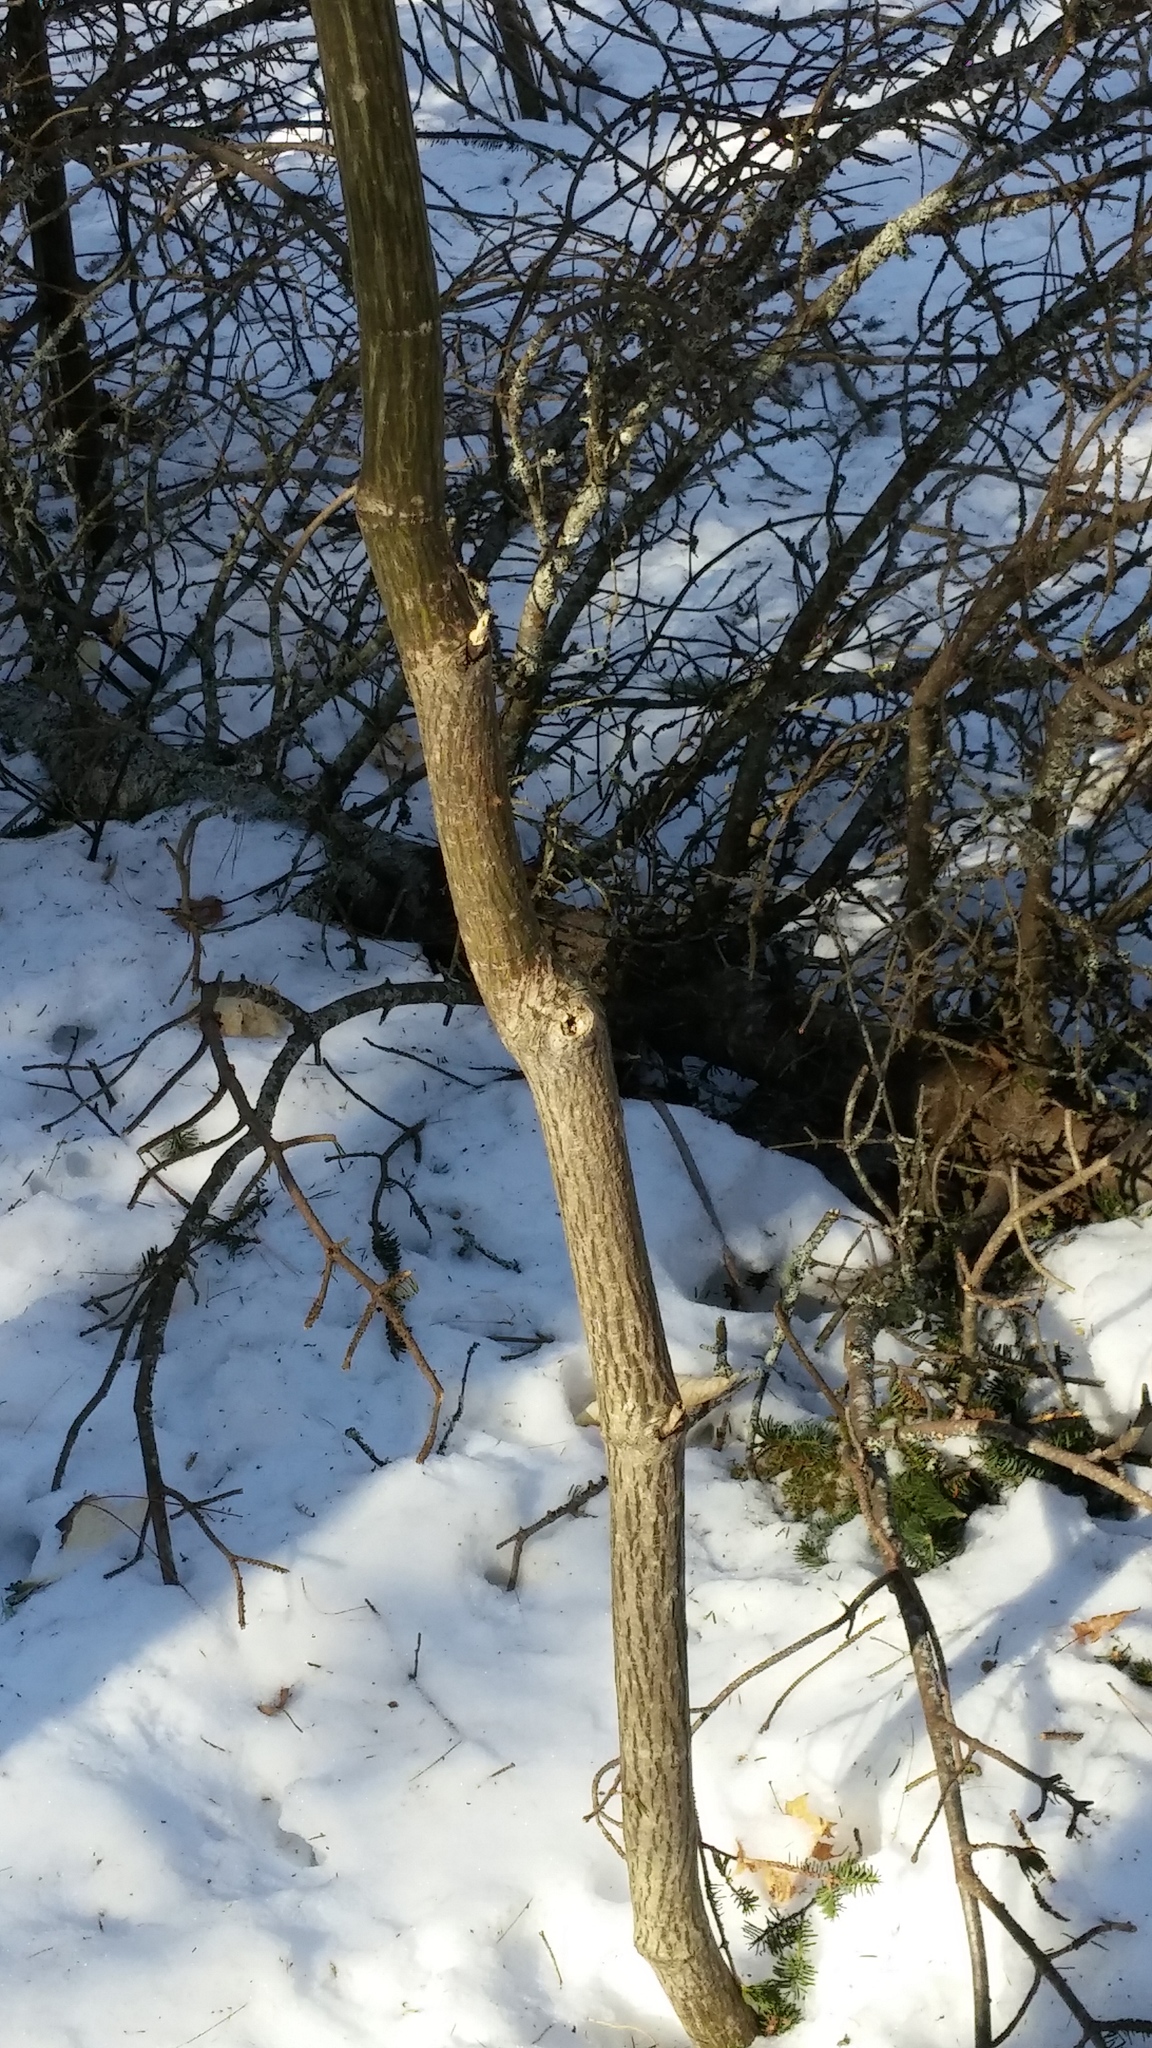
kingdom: Plantae
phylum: Tracheophyta
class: Magnoliopsida
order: Sapindales
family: Sapindaceae
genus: Acer
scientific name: Acer pensylvanicum
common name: Moosewood
